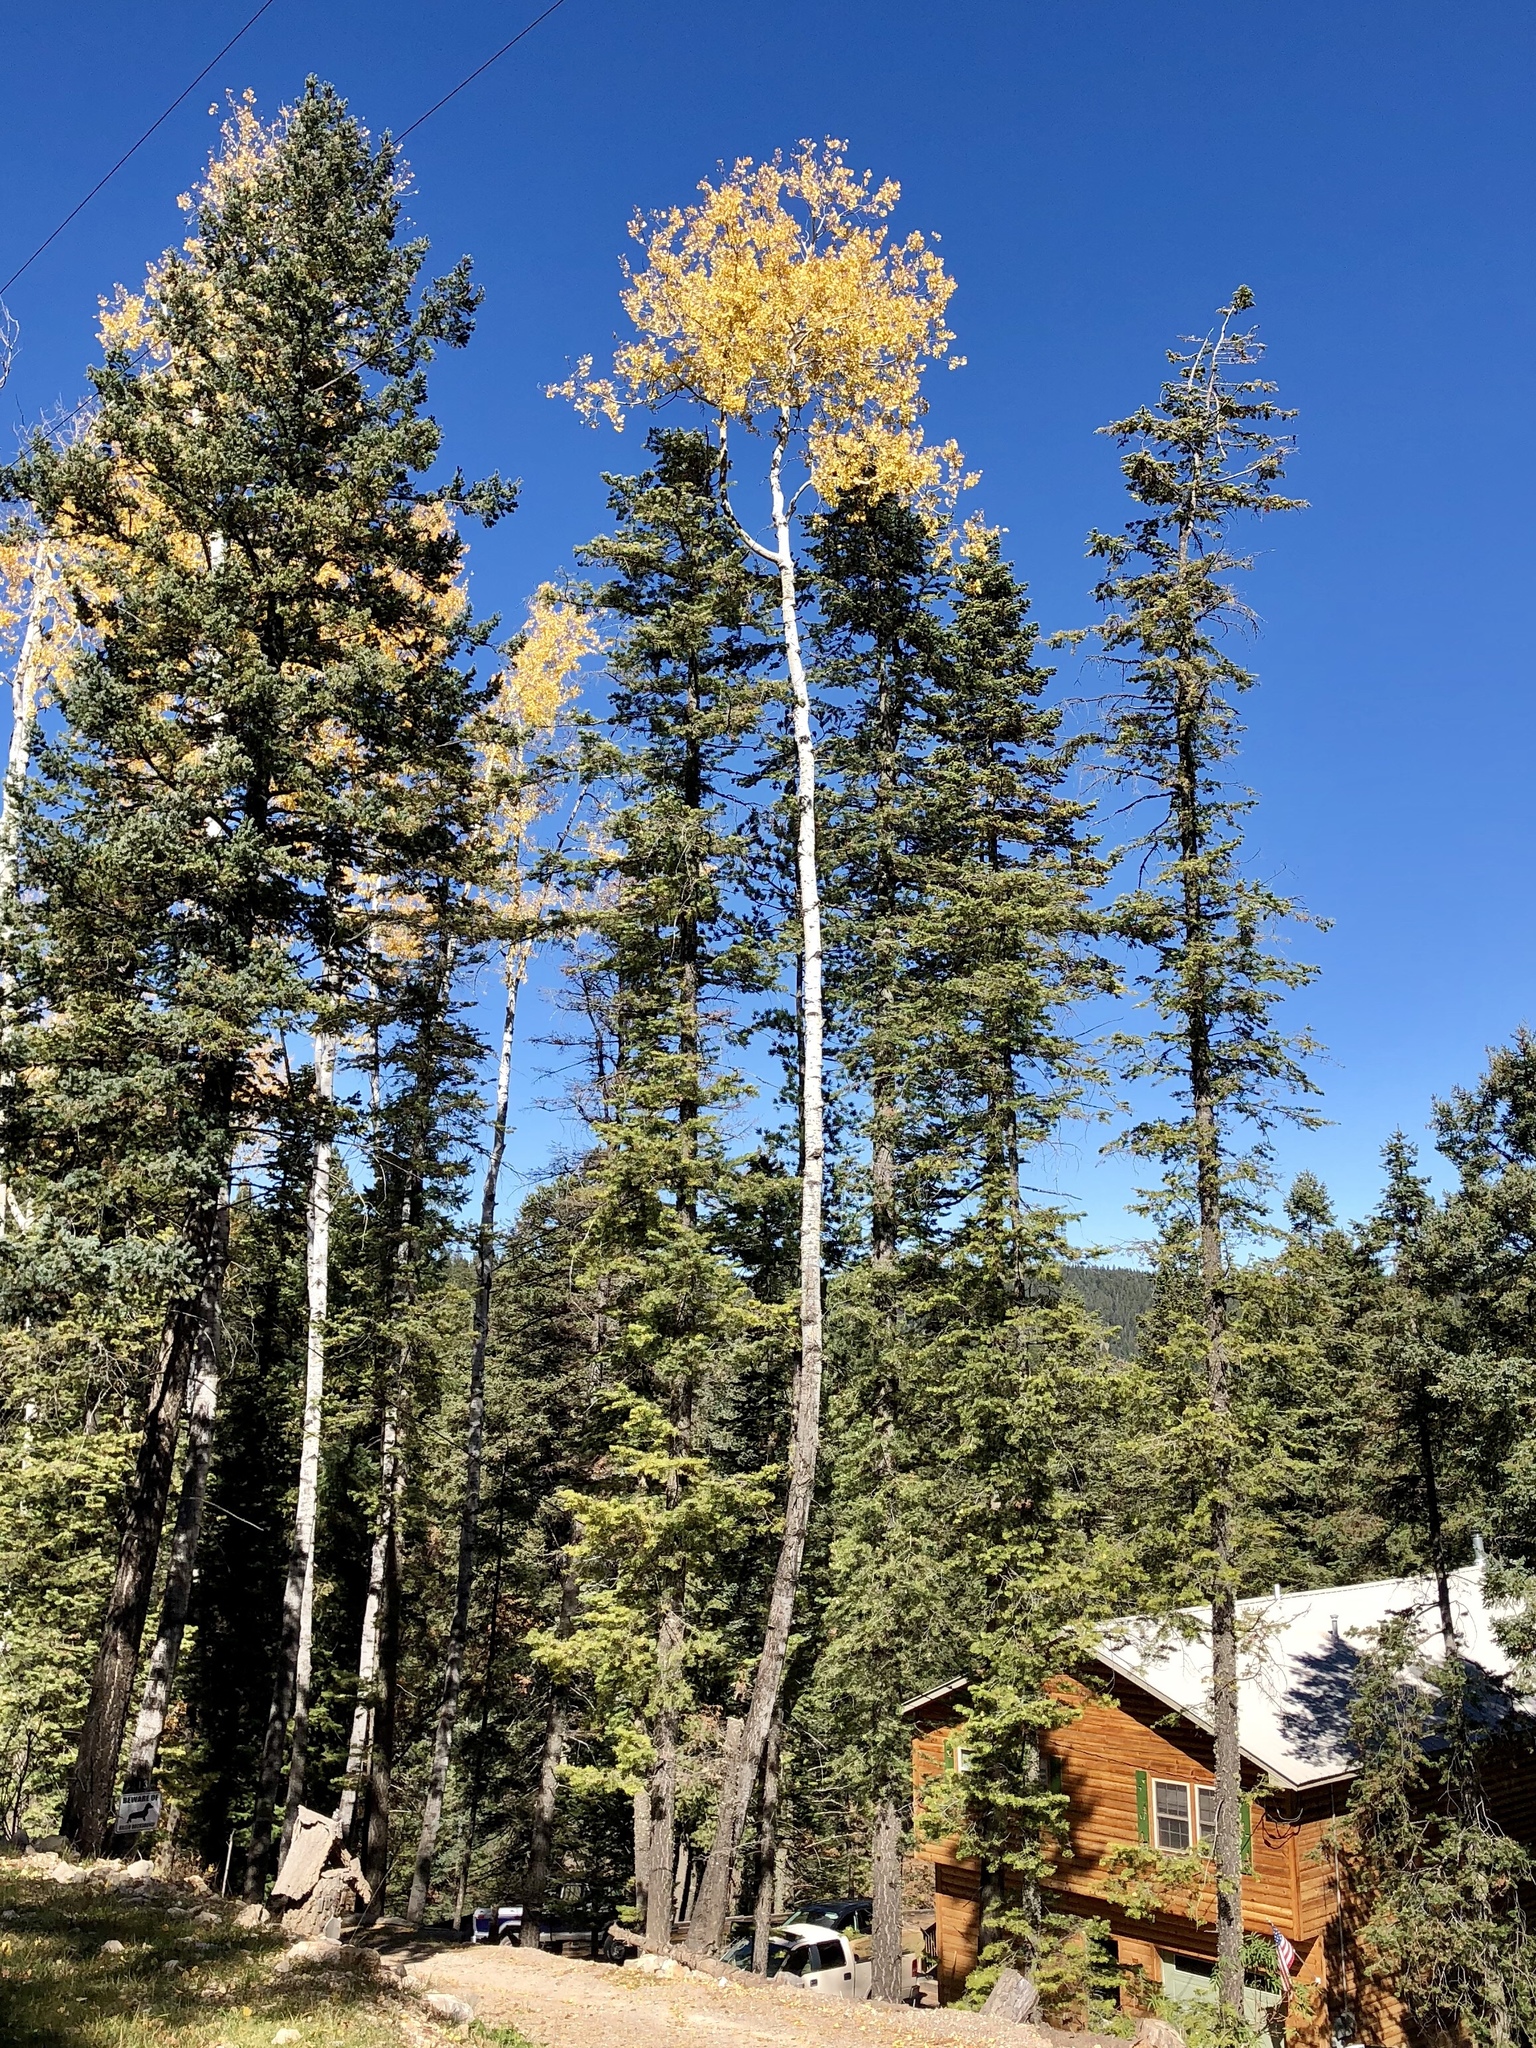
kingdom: Plantae
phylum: Tracheophyta
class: Magnoliopsida
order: Malpighiales
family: Salicaceae
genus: Populus
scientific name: Populus tremuloides
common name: Quaking aspen
